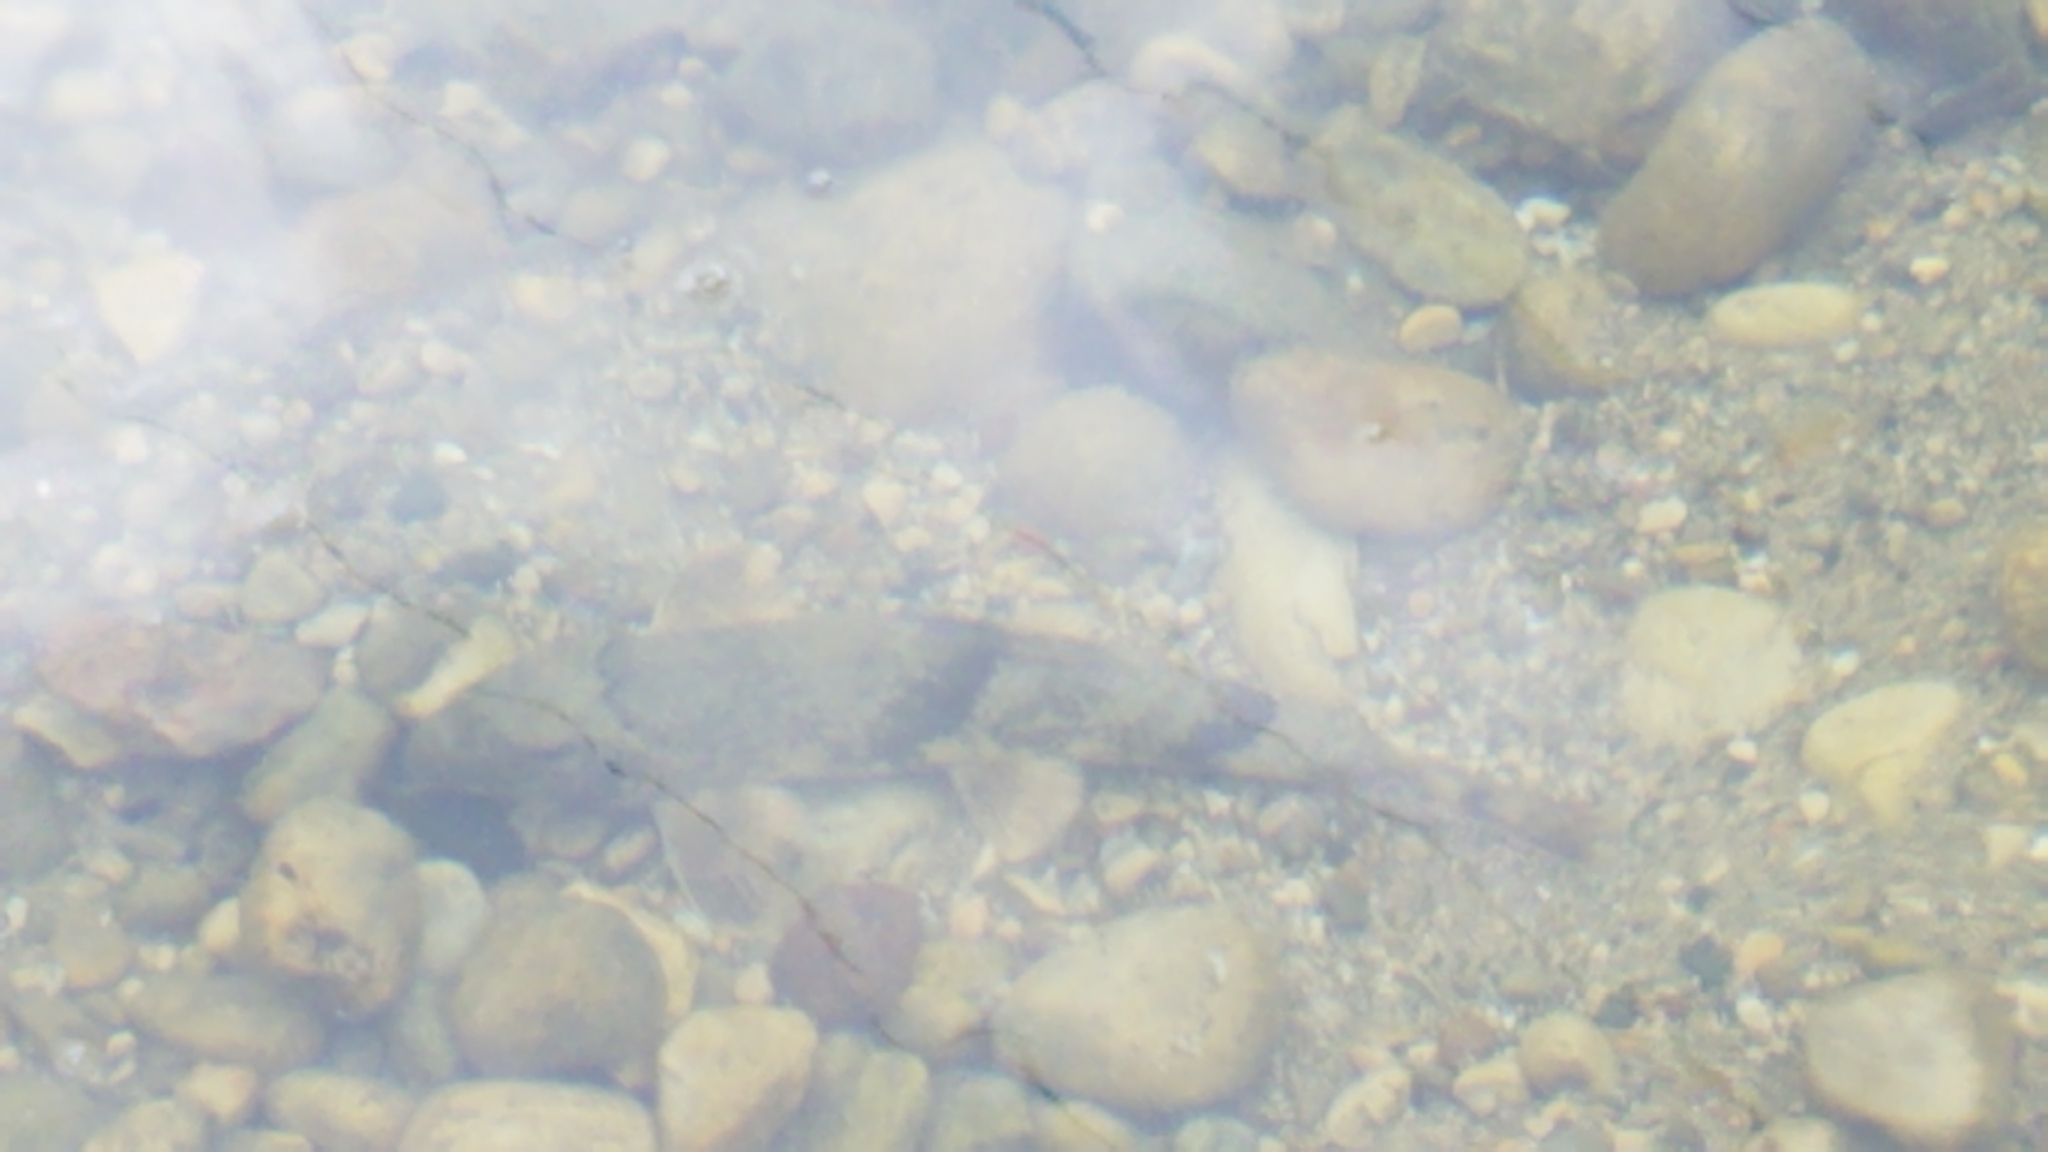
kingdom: Animalia
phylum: Chordata
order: Cypriniformes
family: Catostomidae
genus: Hypentelium
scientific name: Hypentelium nigricans
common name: Northern hog sucker
